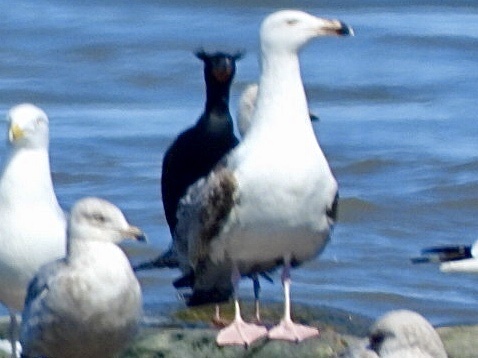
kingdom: Animalia
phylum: Chordata
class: Aves
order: Charadriiformes
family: Laridae
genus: Larus
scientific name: Larus marinus
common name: Great black-backed gull
